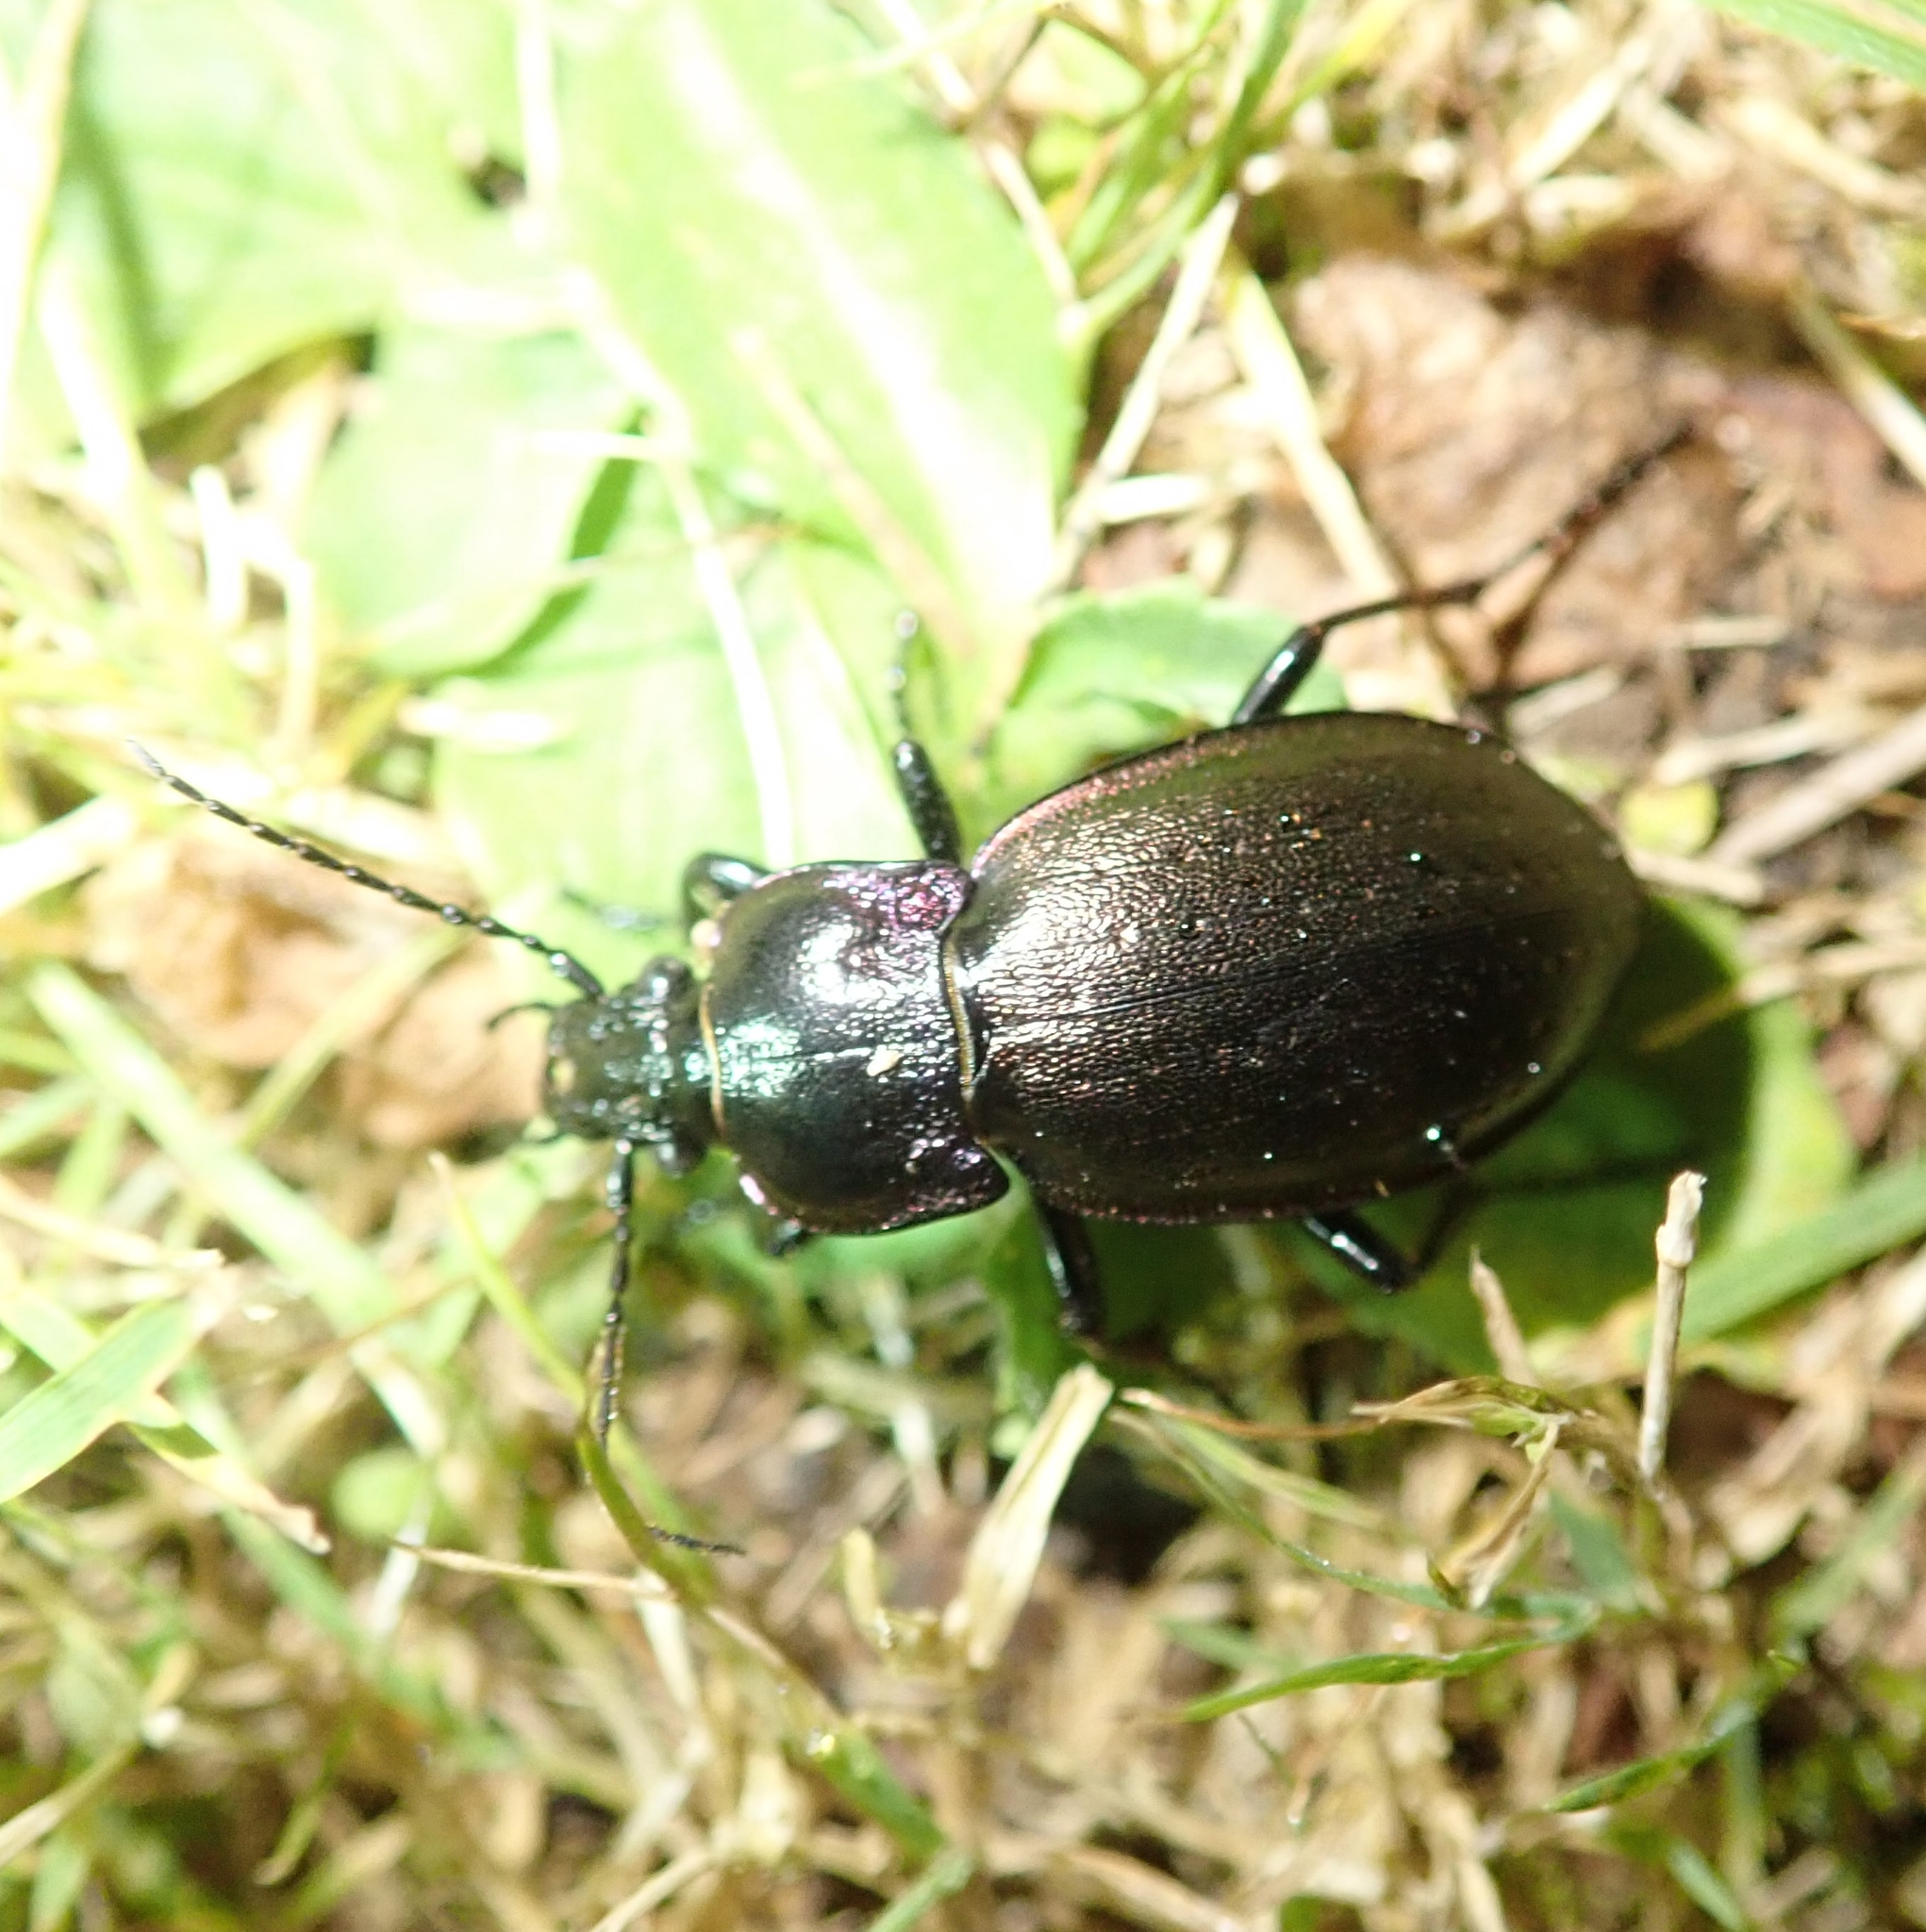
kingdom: Animalia
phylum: Arthropoda
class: Insecta
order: Coleoptera
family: Carabidae
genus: Carabus
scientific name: Carabus nemoralis
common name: European ground beetle
